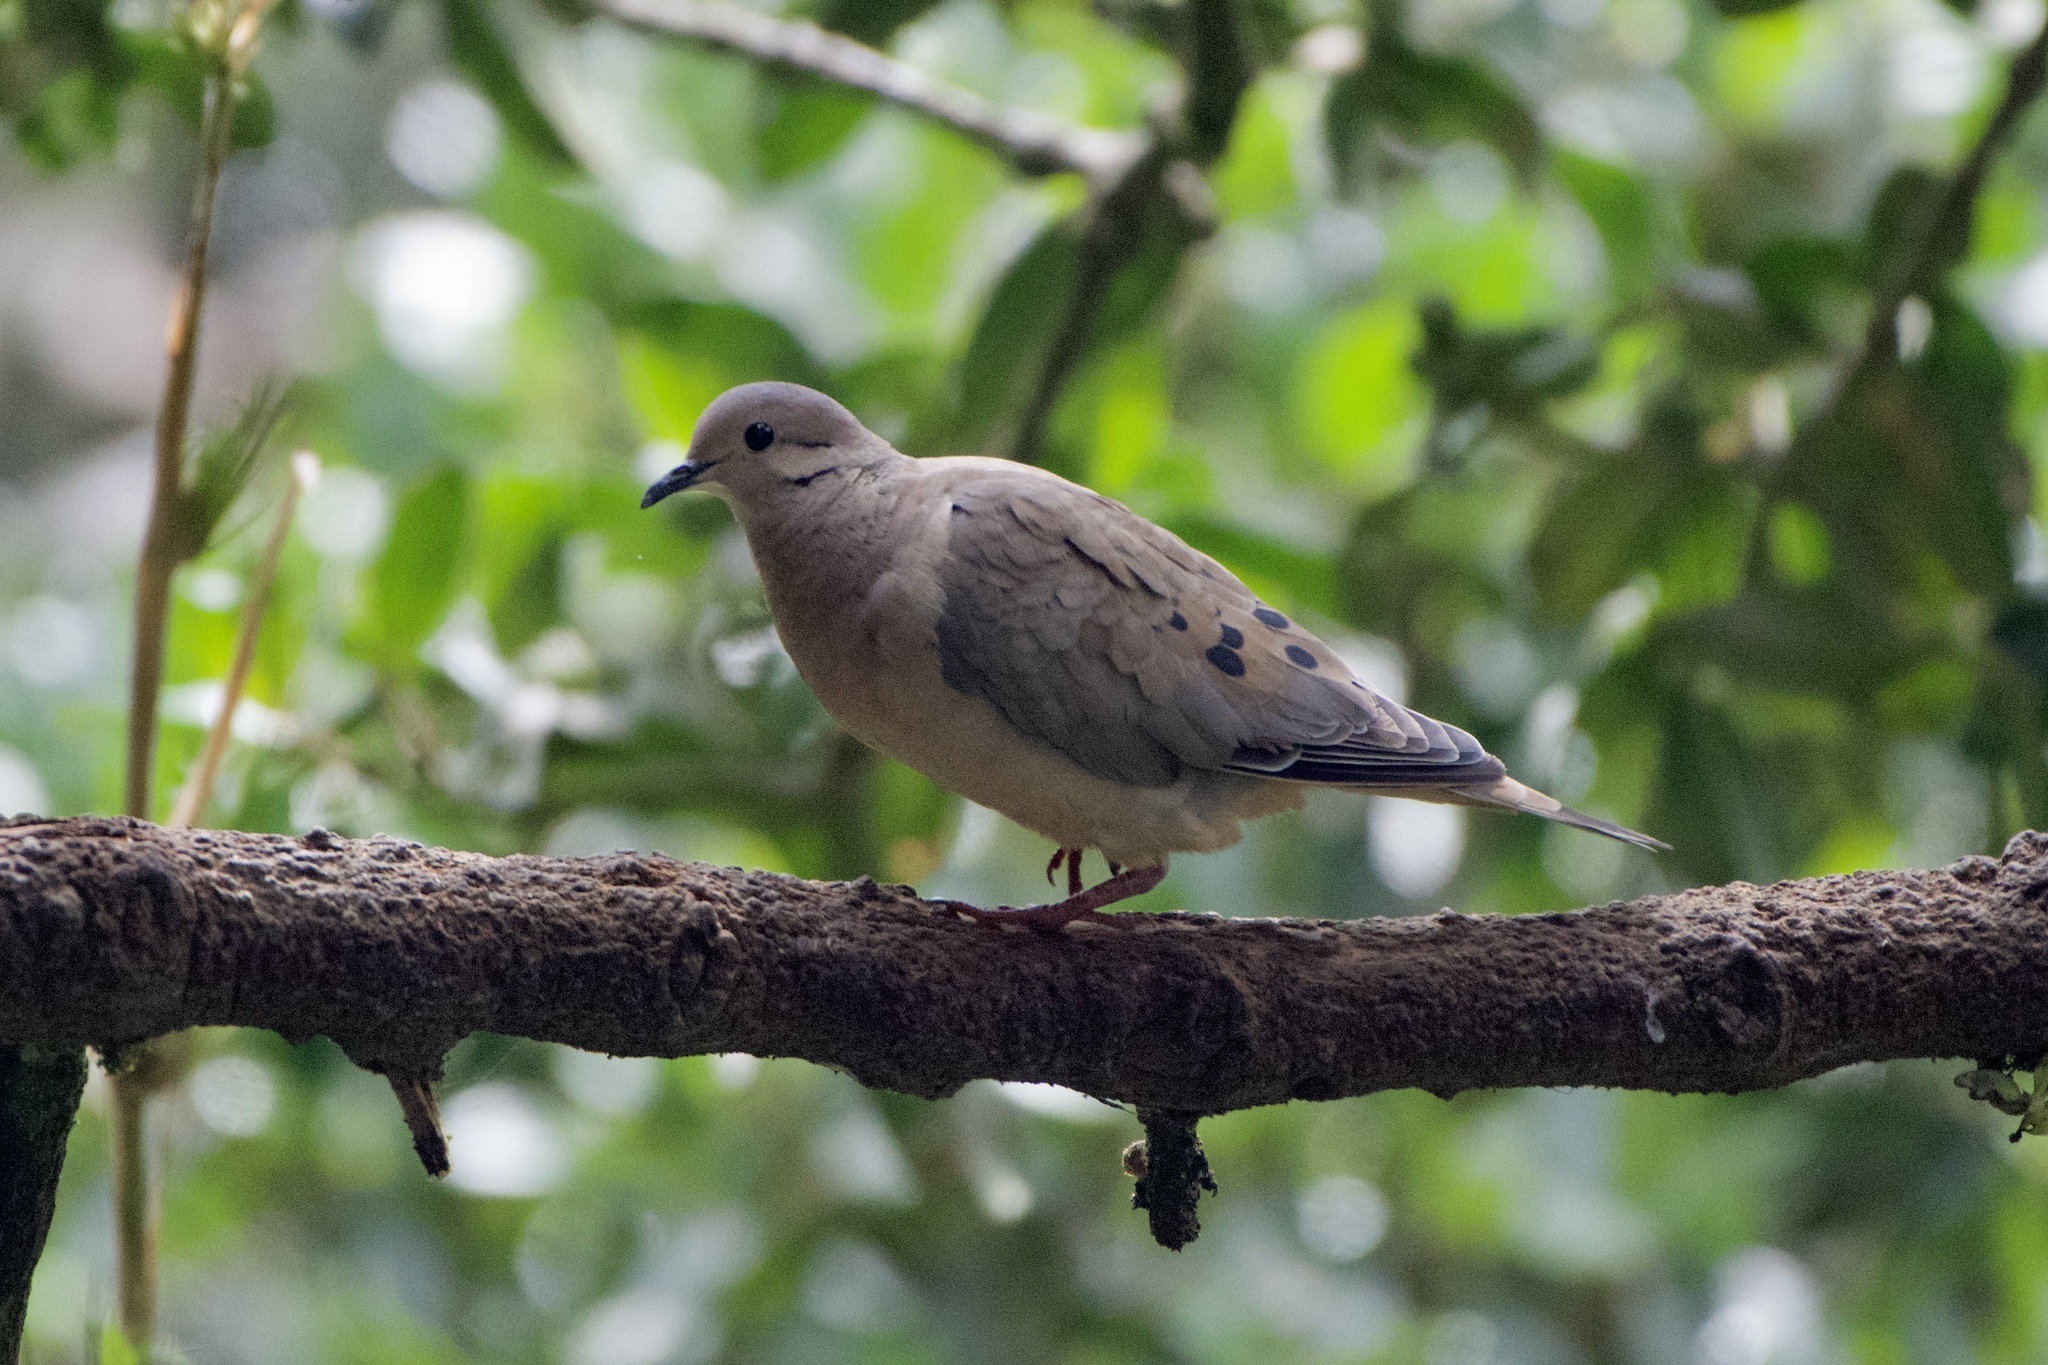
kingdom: Animalia
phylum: Chordata
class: Aves
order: Columbiformes
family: Columbidae
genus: Zenaida
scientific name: Zenaida auriculata
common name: Eared dove
